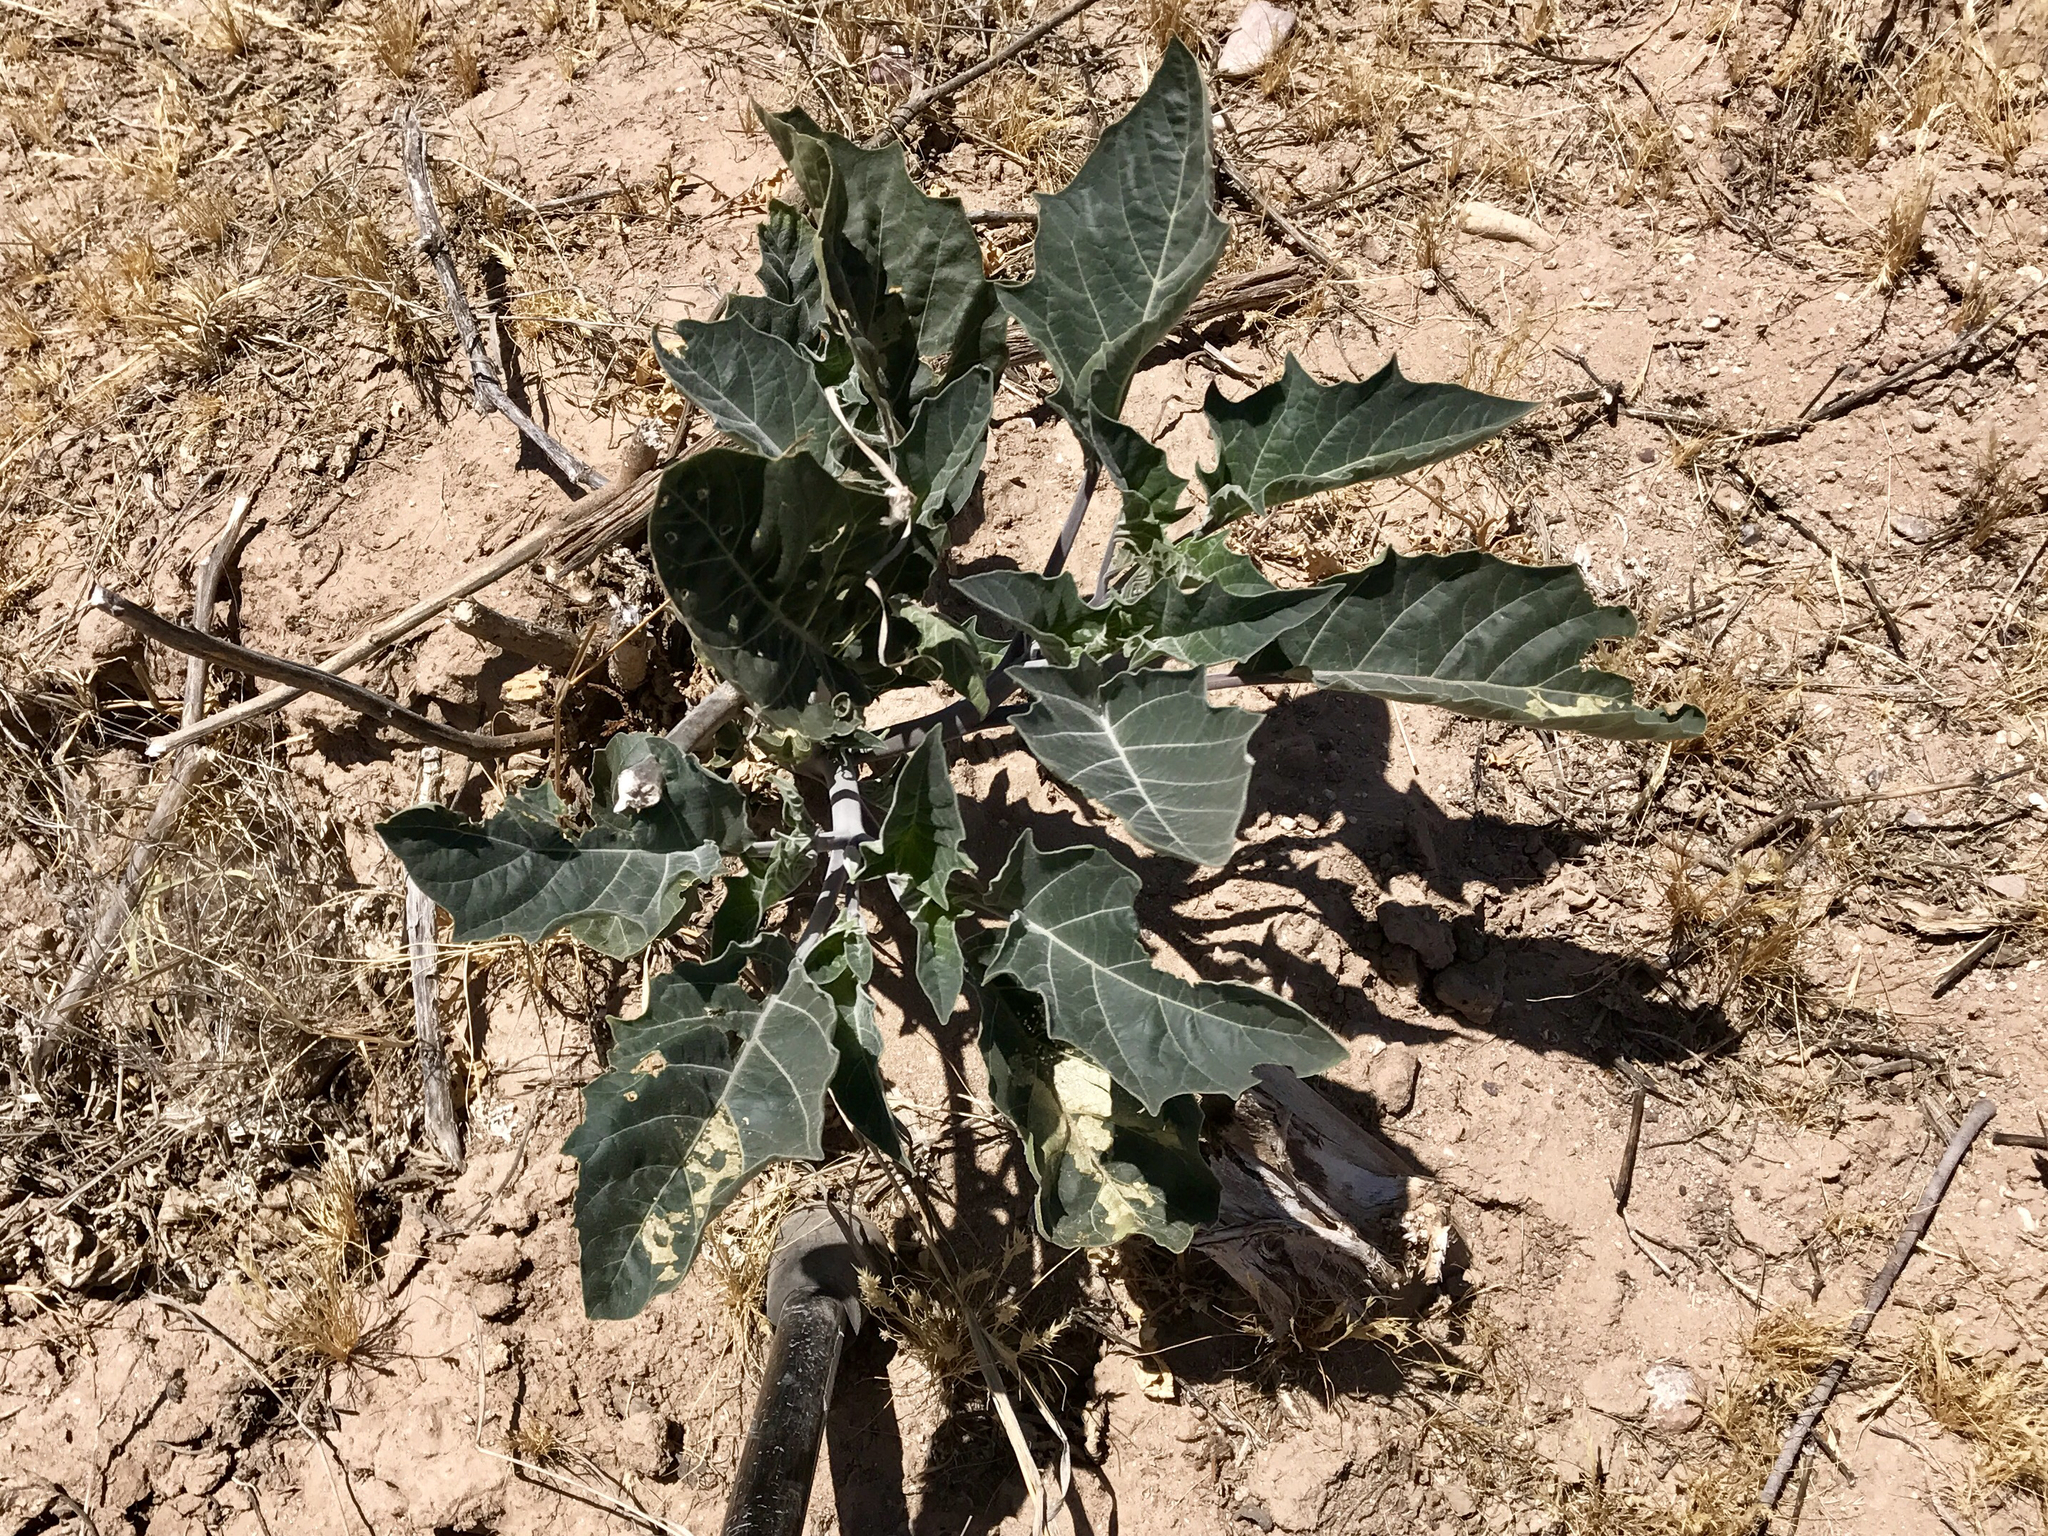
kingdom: Plantae
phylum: Tracheophyta
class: Magnoliopsida
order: Solanales
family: Solanaceae
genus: Datura
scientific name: Datura discolor
